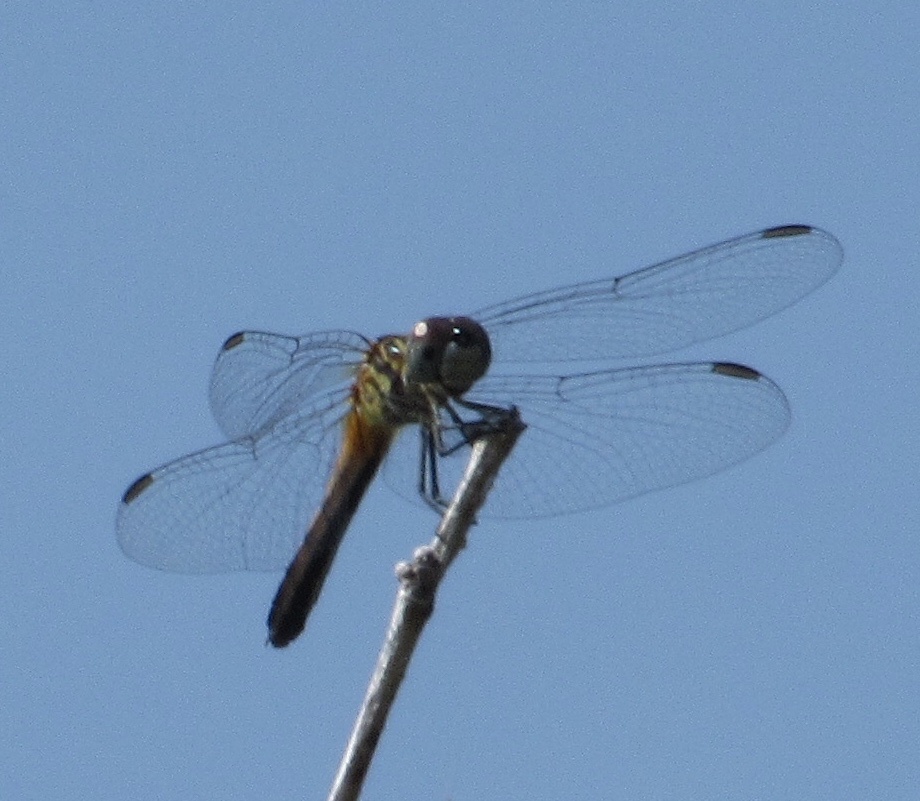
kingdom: Animalia
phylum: Arthropoda
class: Insecta
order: Odonata
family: Libellulidae
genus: Pachydiplax
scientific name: Pachydiplax longipennis
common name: Blue dasher
